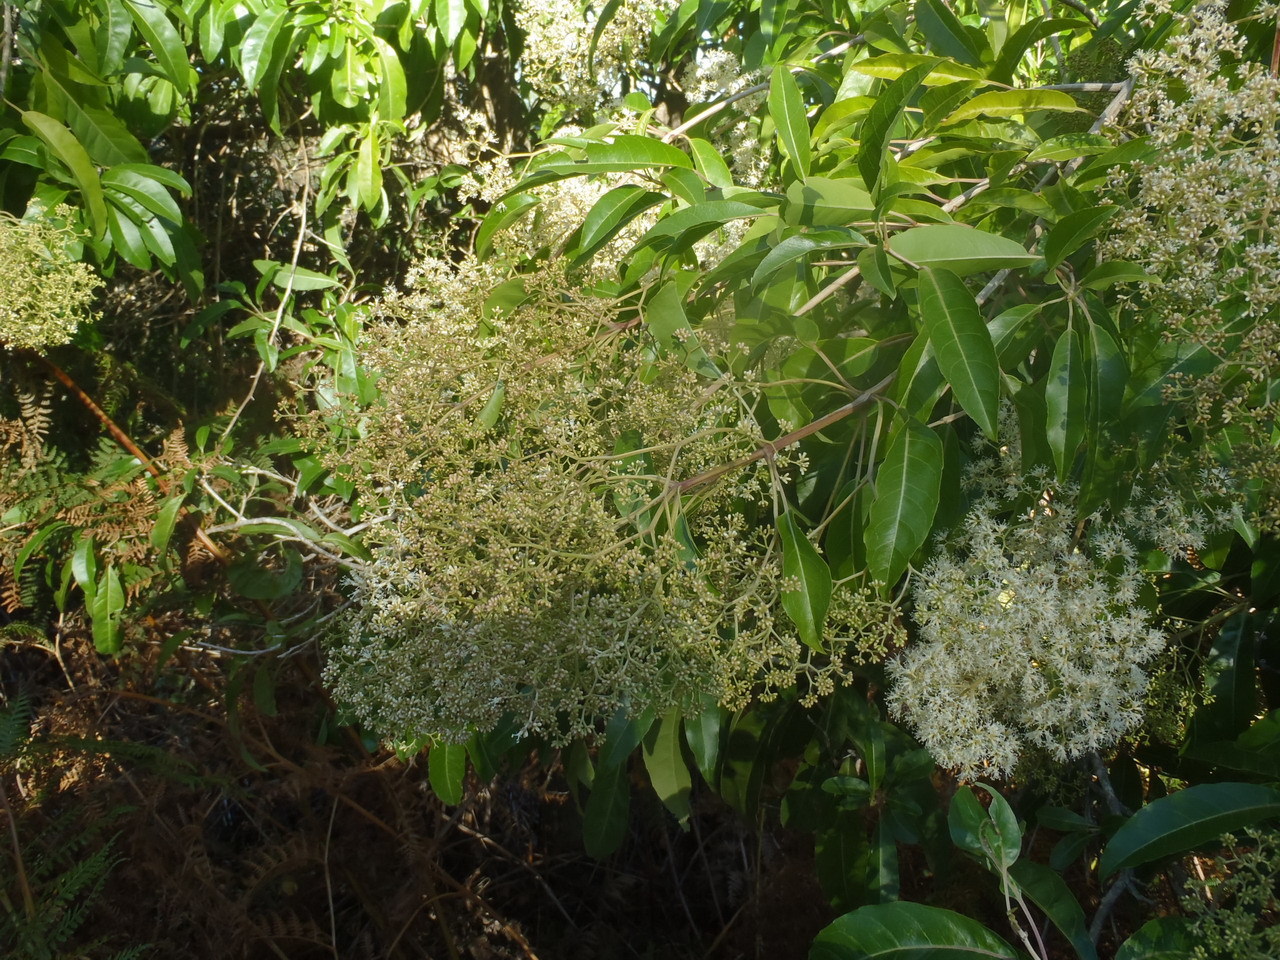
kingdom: Plantae
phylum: Tracheophyta
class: Magnoliopsida
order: Lamiales
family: Stilbaceae
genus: Nuxia
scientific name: Nuxia floribunda
